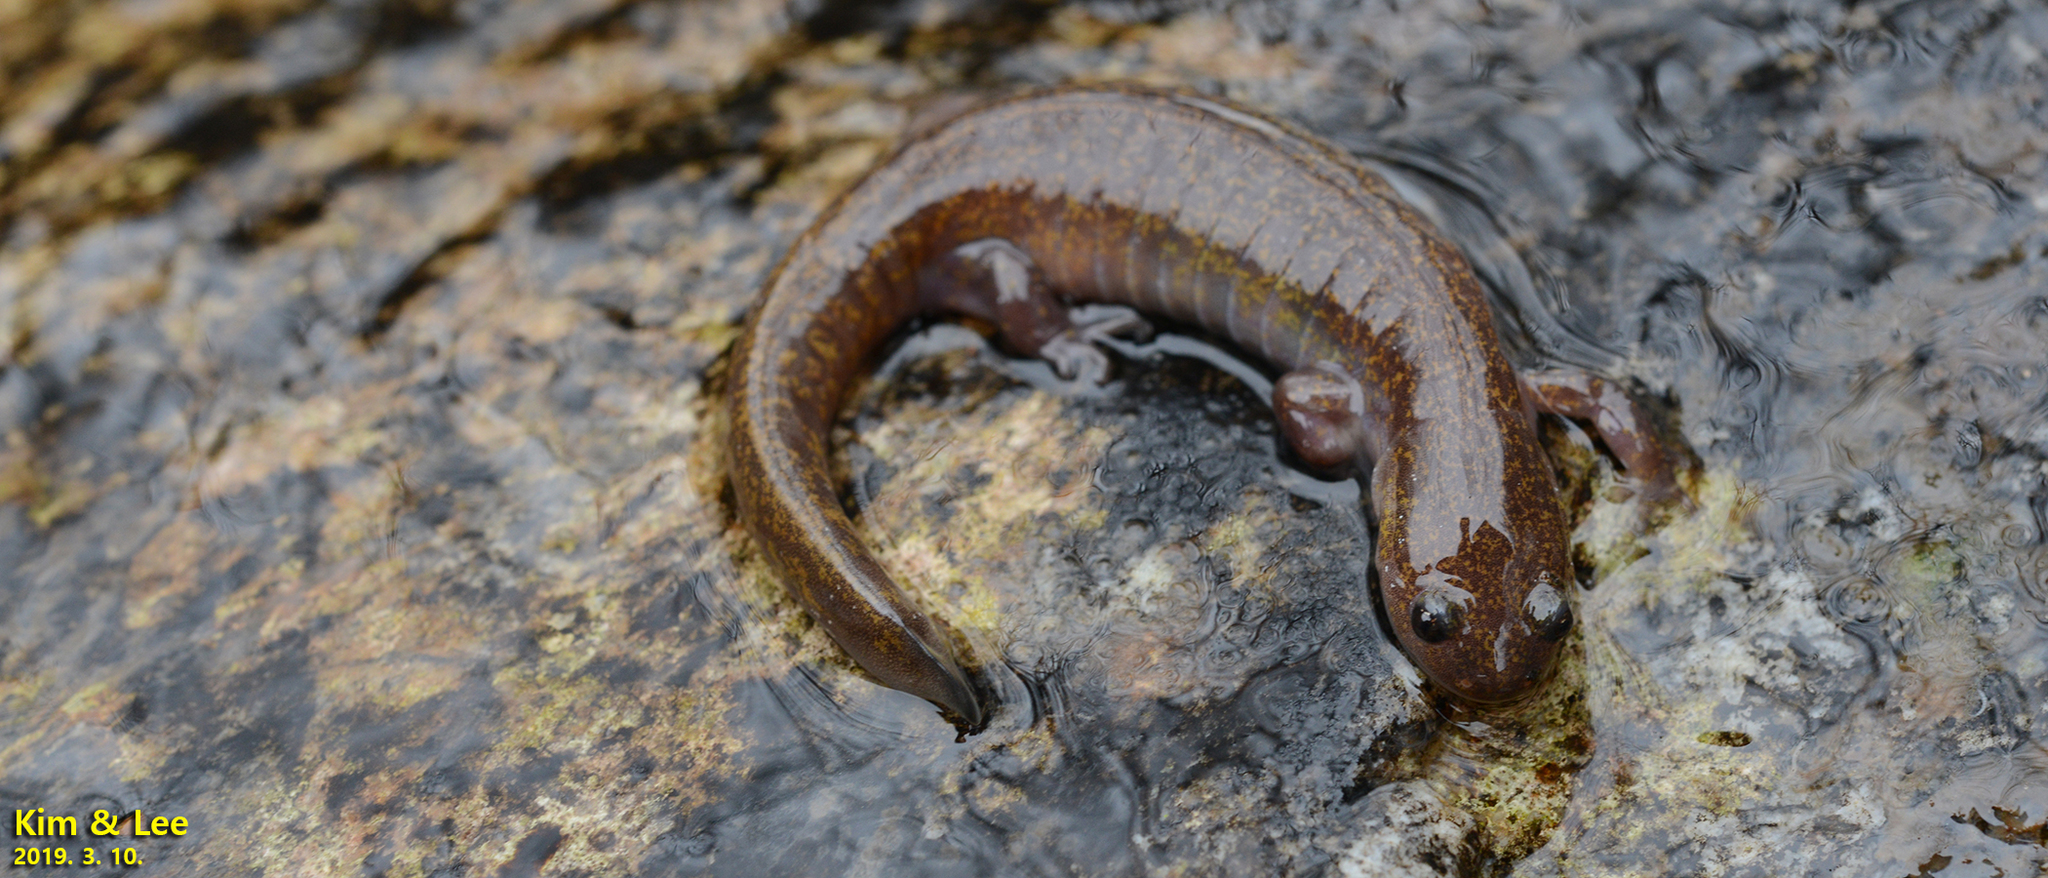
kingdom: Animalia
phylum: Chordata
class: Amphibia
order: Caudata
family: Hynobiidae
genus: Hynobius
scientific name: Hynobius notialis
